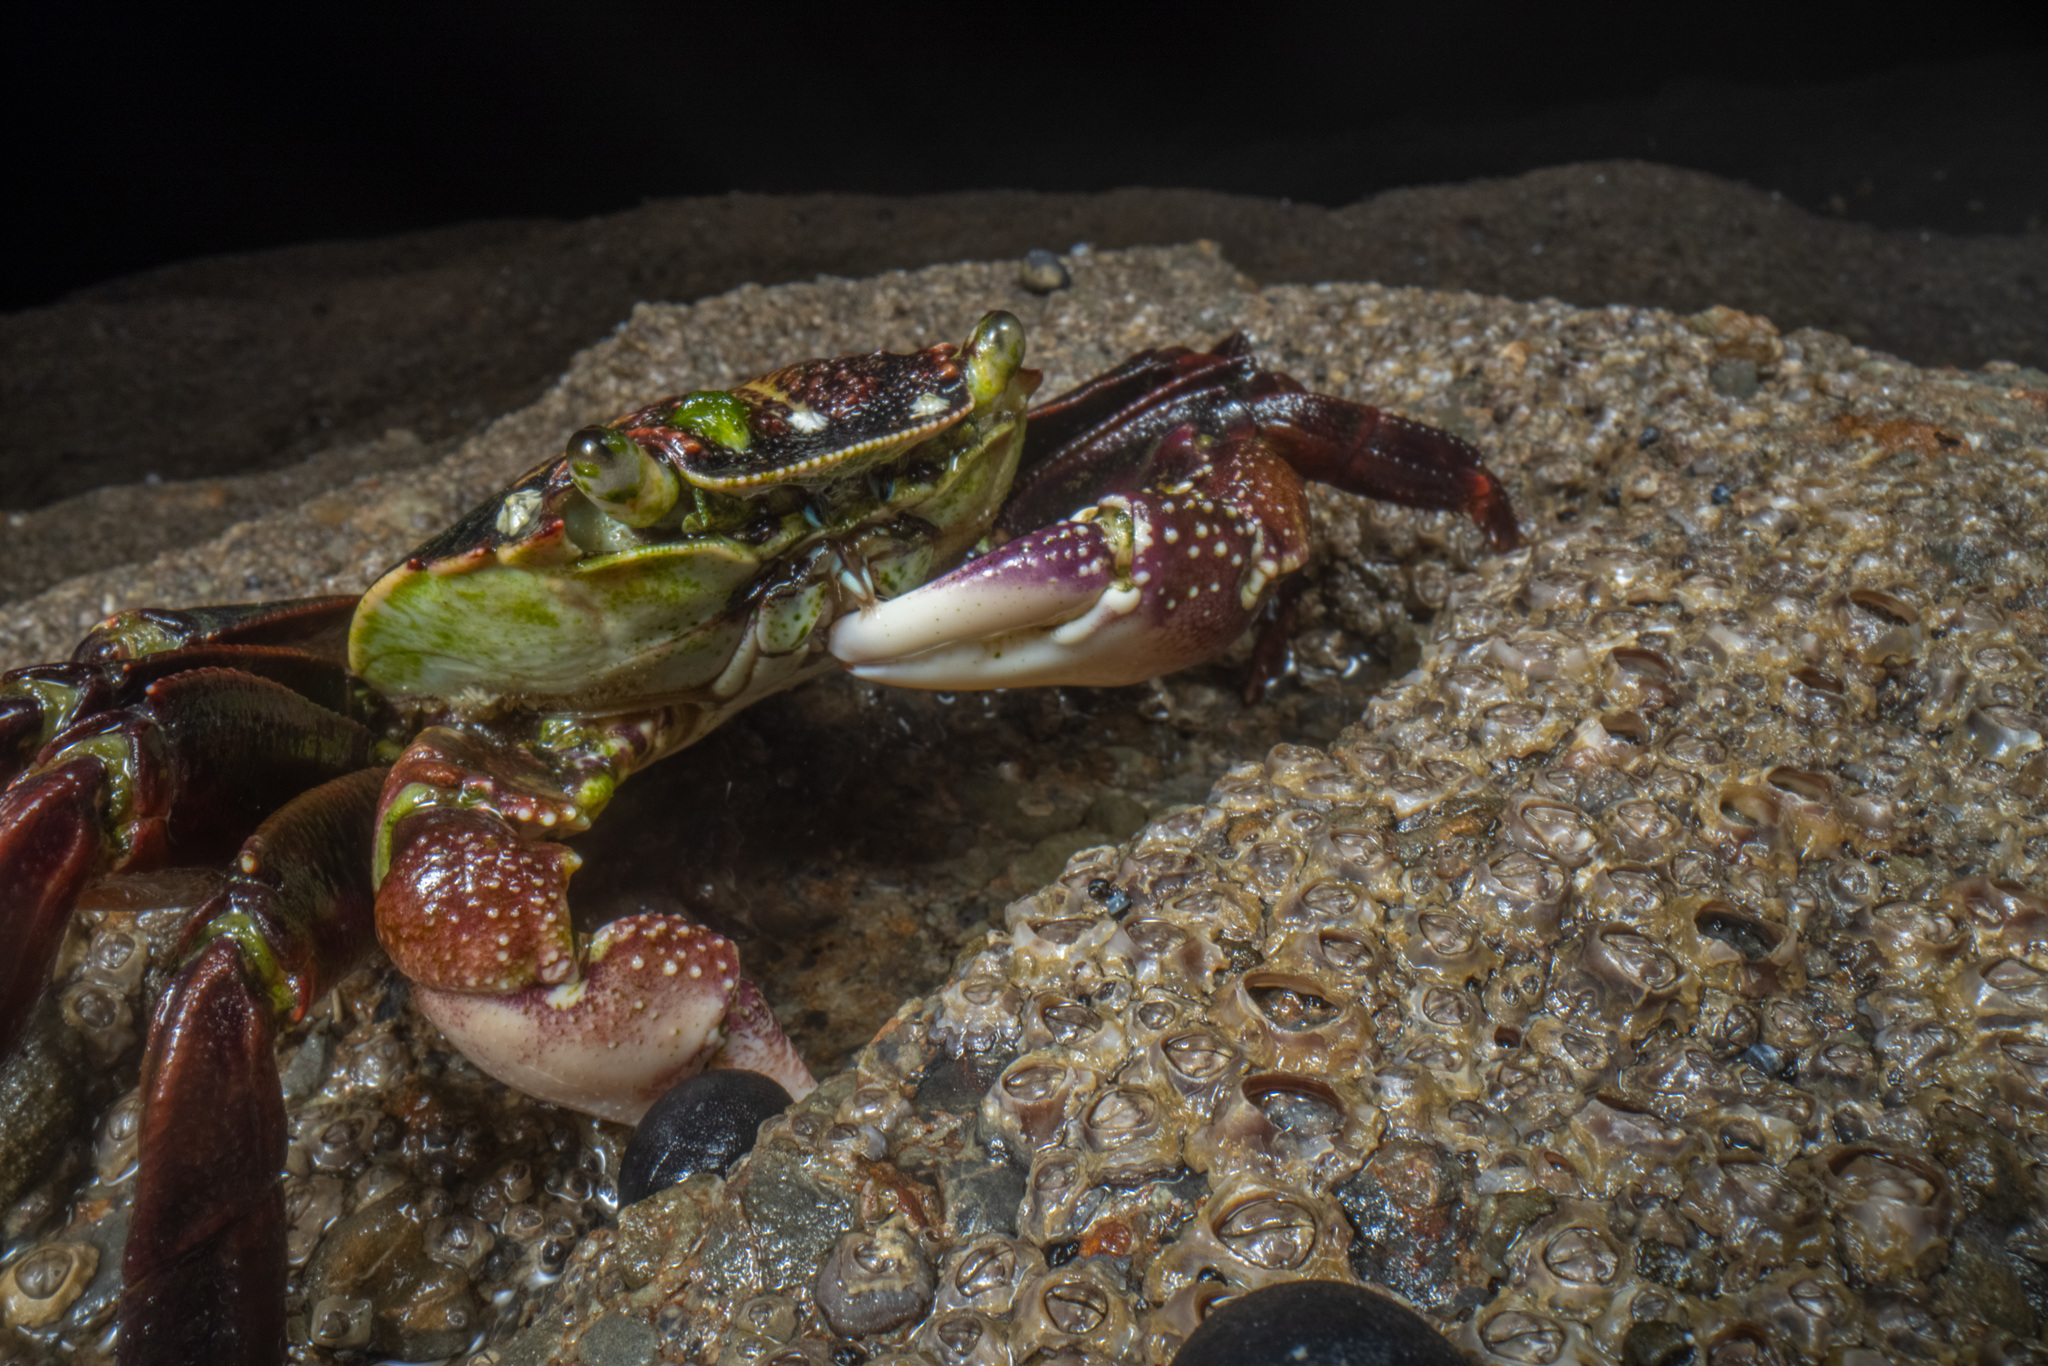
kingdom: Animalia
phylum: Arthropoda
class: Malacostraca
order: Decapoda
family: Grapsidae
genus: Leptograpsus
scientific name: Leptograpsus variegatus
